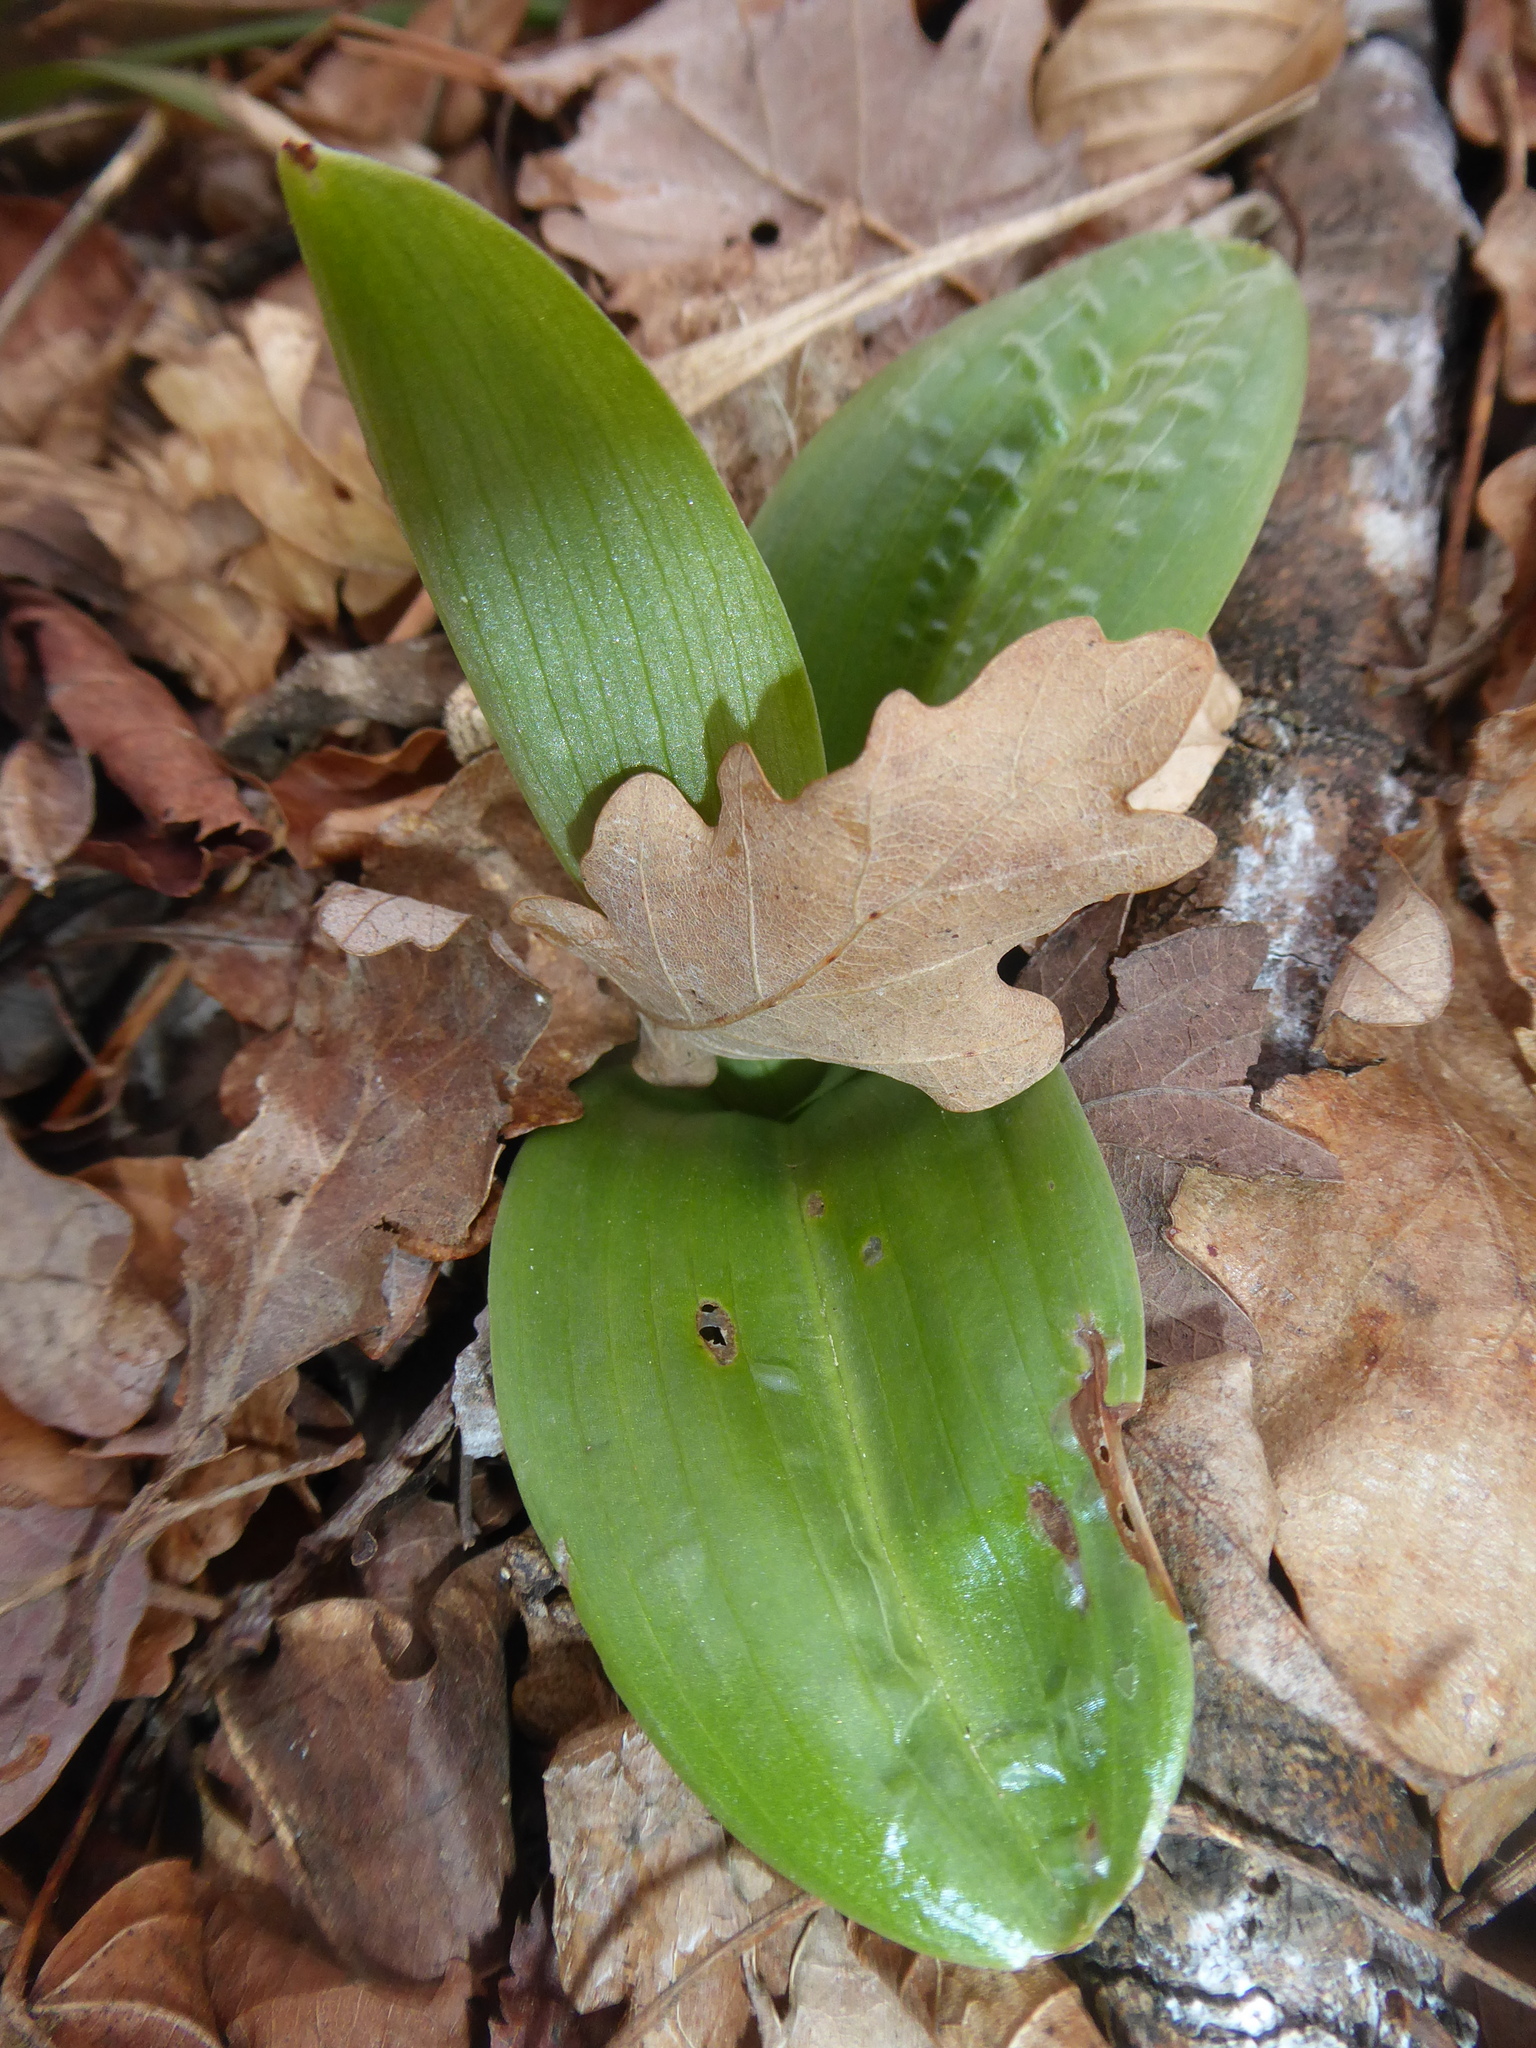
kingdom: Plantae
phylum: Tracheophyta
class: Liliopsida
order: Asparagales
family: Orchidaceae
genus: Orchis
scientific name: Orchis pallens
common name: Pale-flowered orchid
